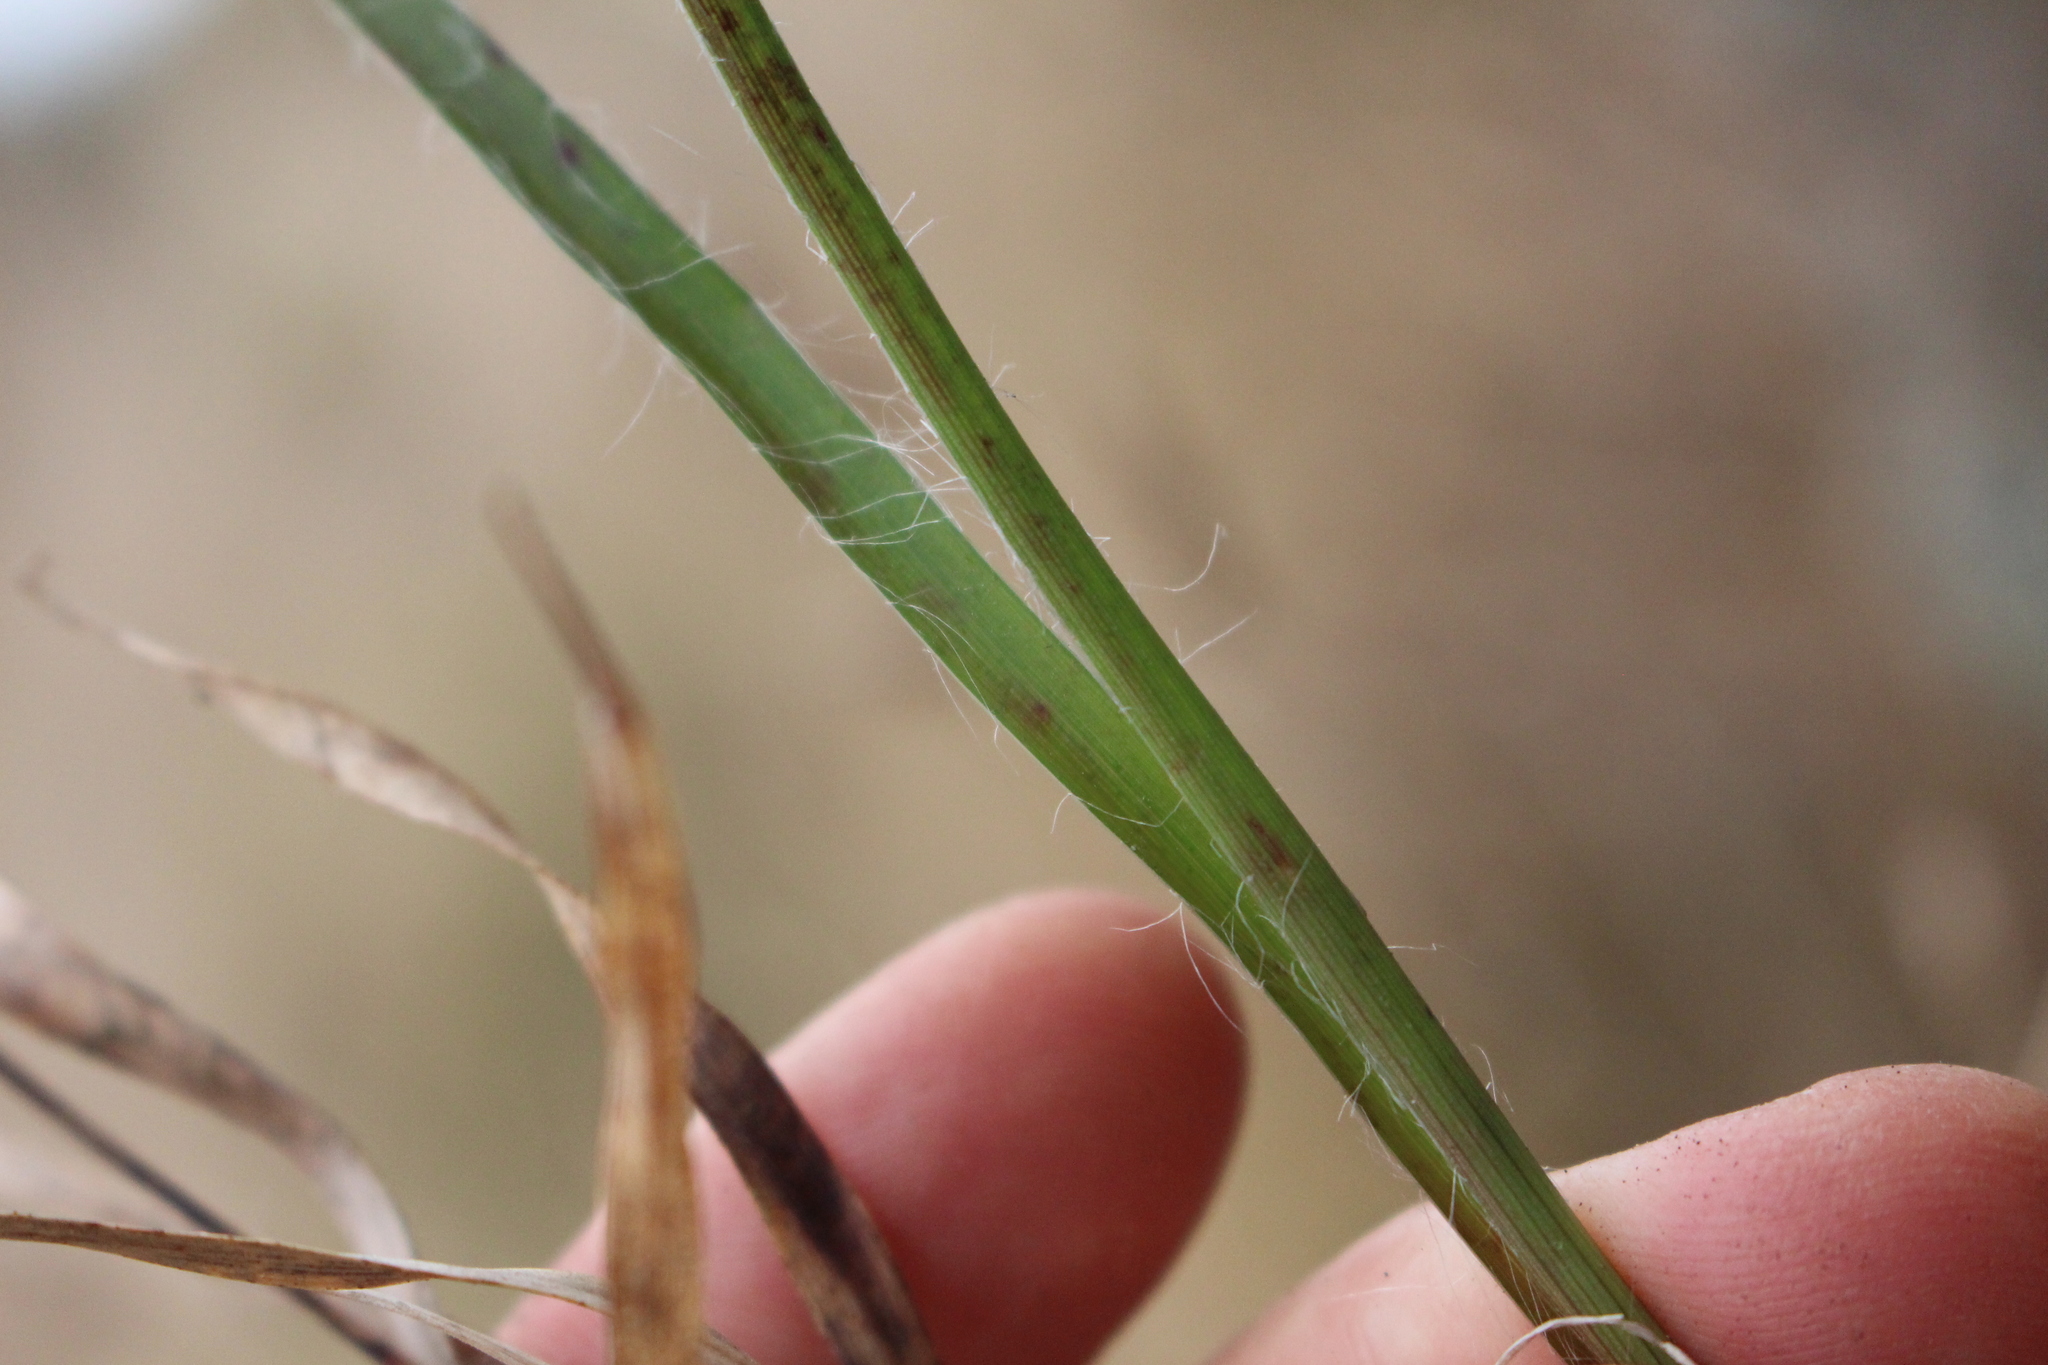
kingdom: Plantae
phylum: Tracheophyta
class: Liliopsida
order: Poales
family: Juncaceae
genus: Luzula
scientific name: Luzula banksiana
